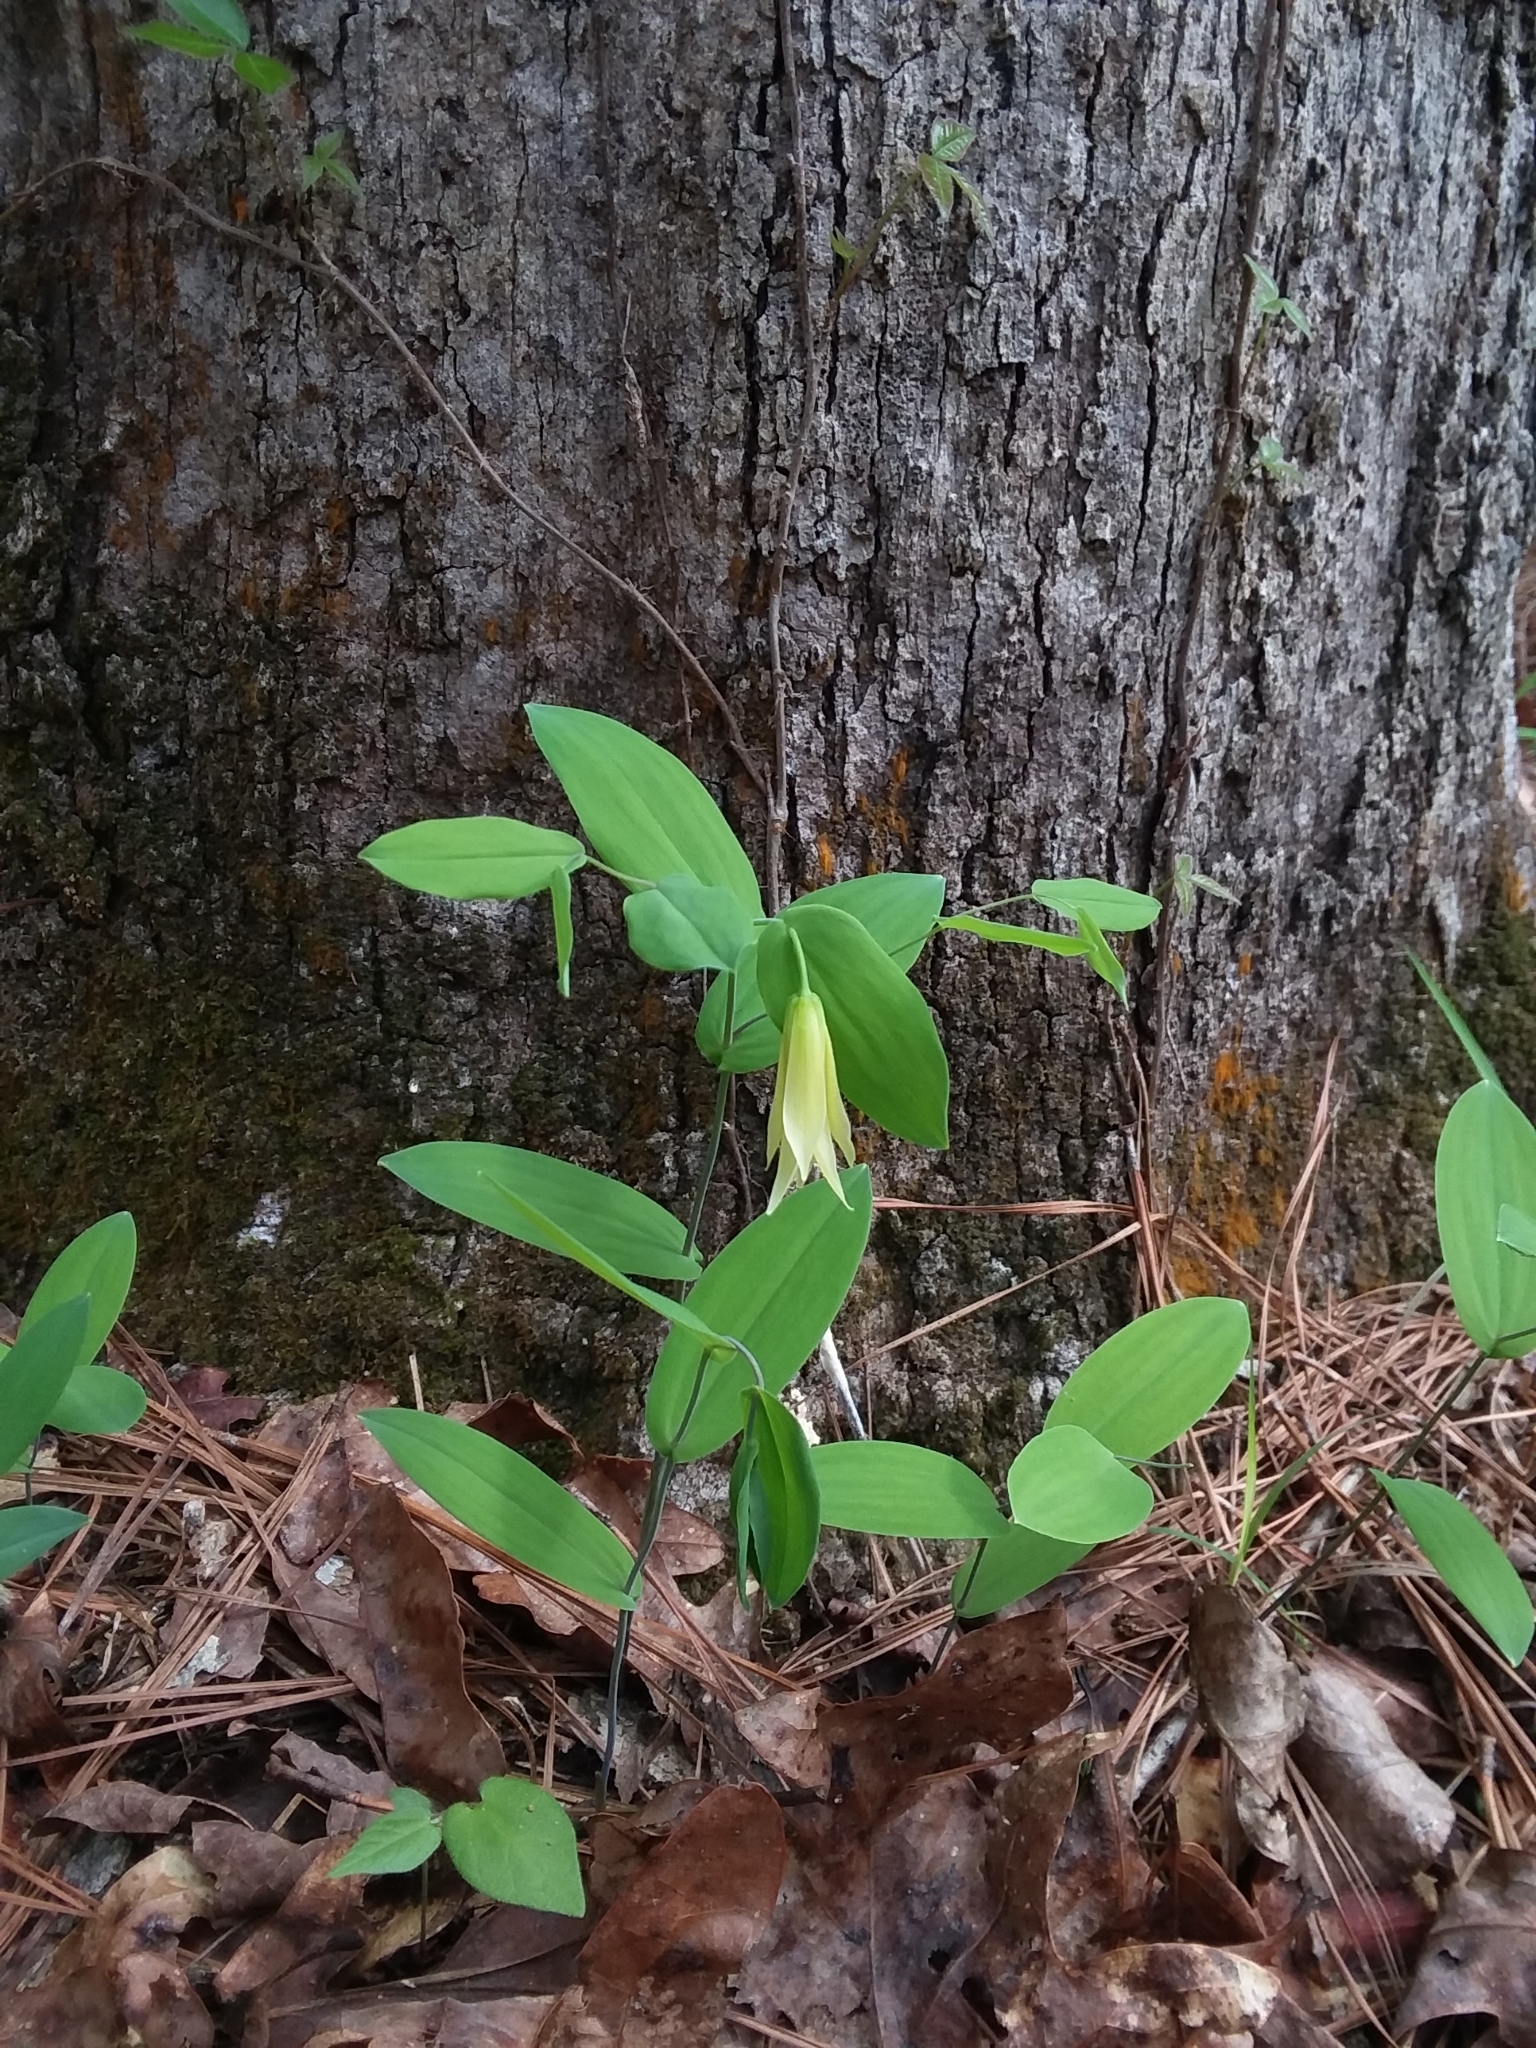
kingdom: Plantae
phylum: Tracheophyta
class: Liliopsida
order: Liliales
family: Colchicaceae
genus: Uvularia
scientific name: Uvularia perfoliata
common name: Perfoliate bellwort
